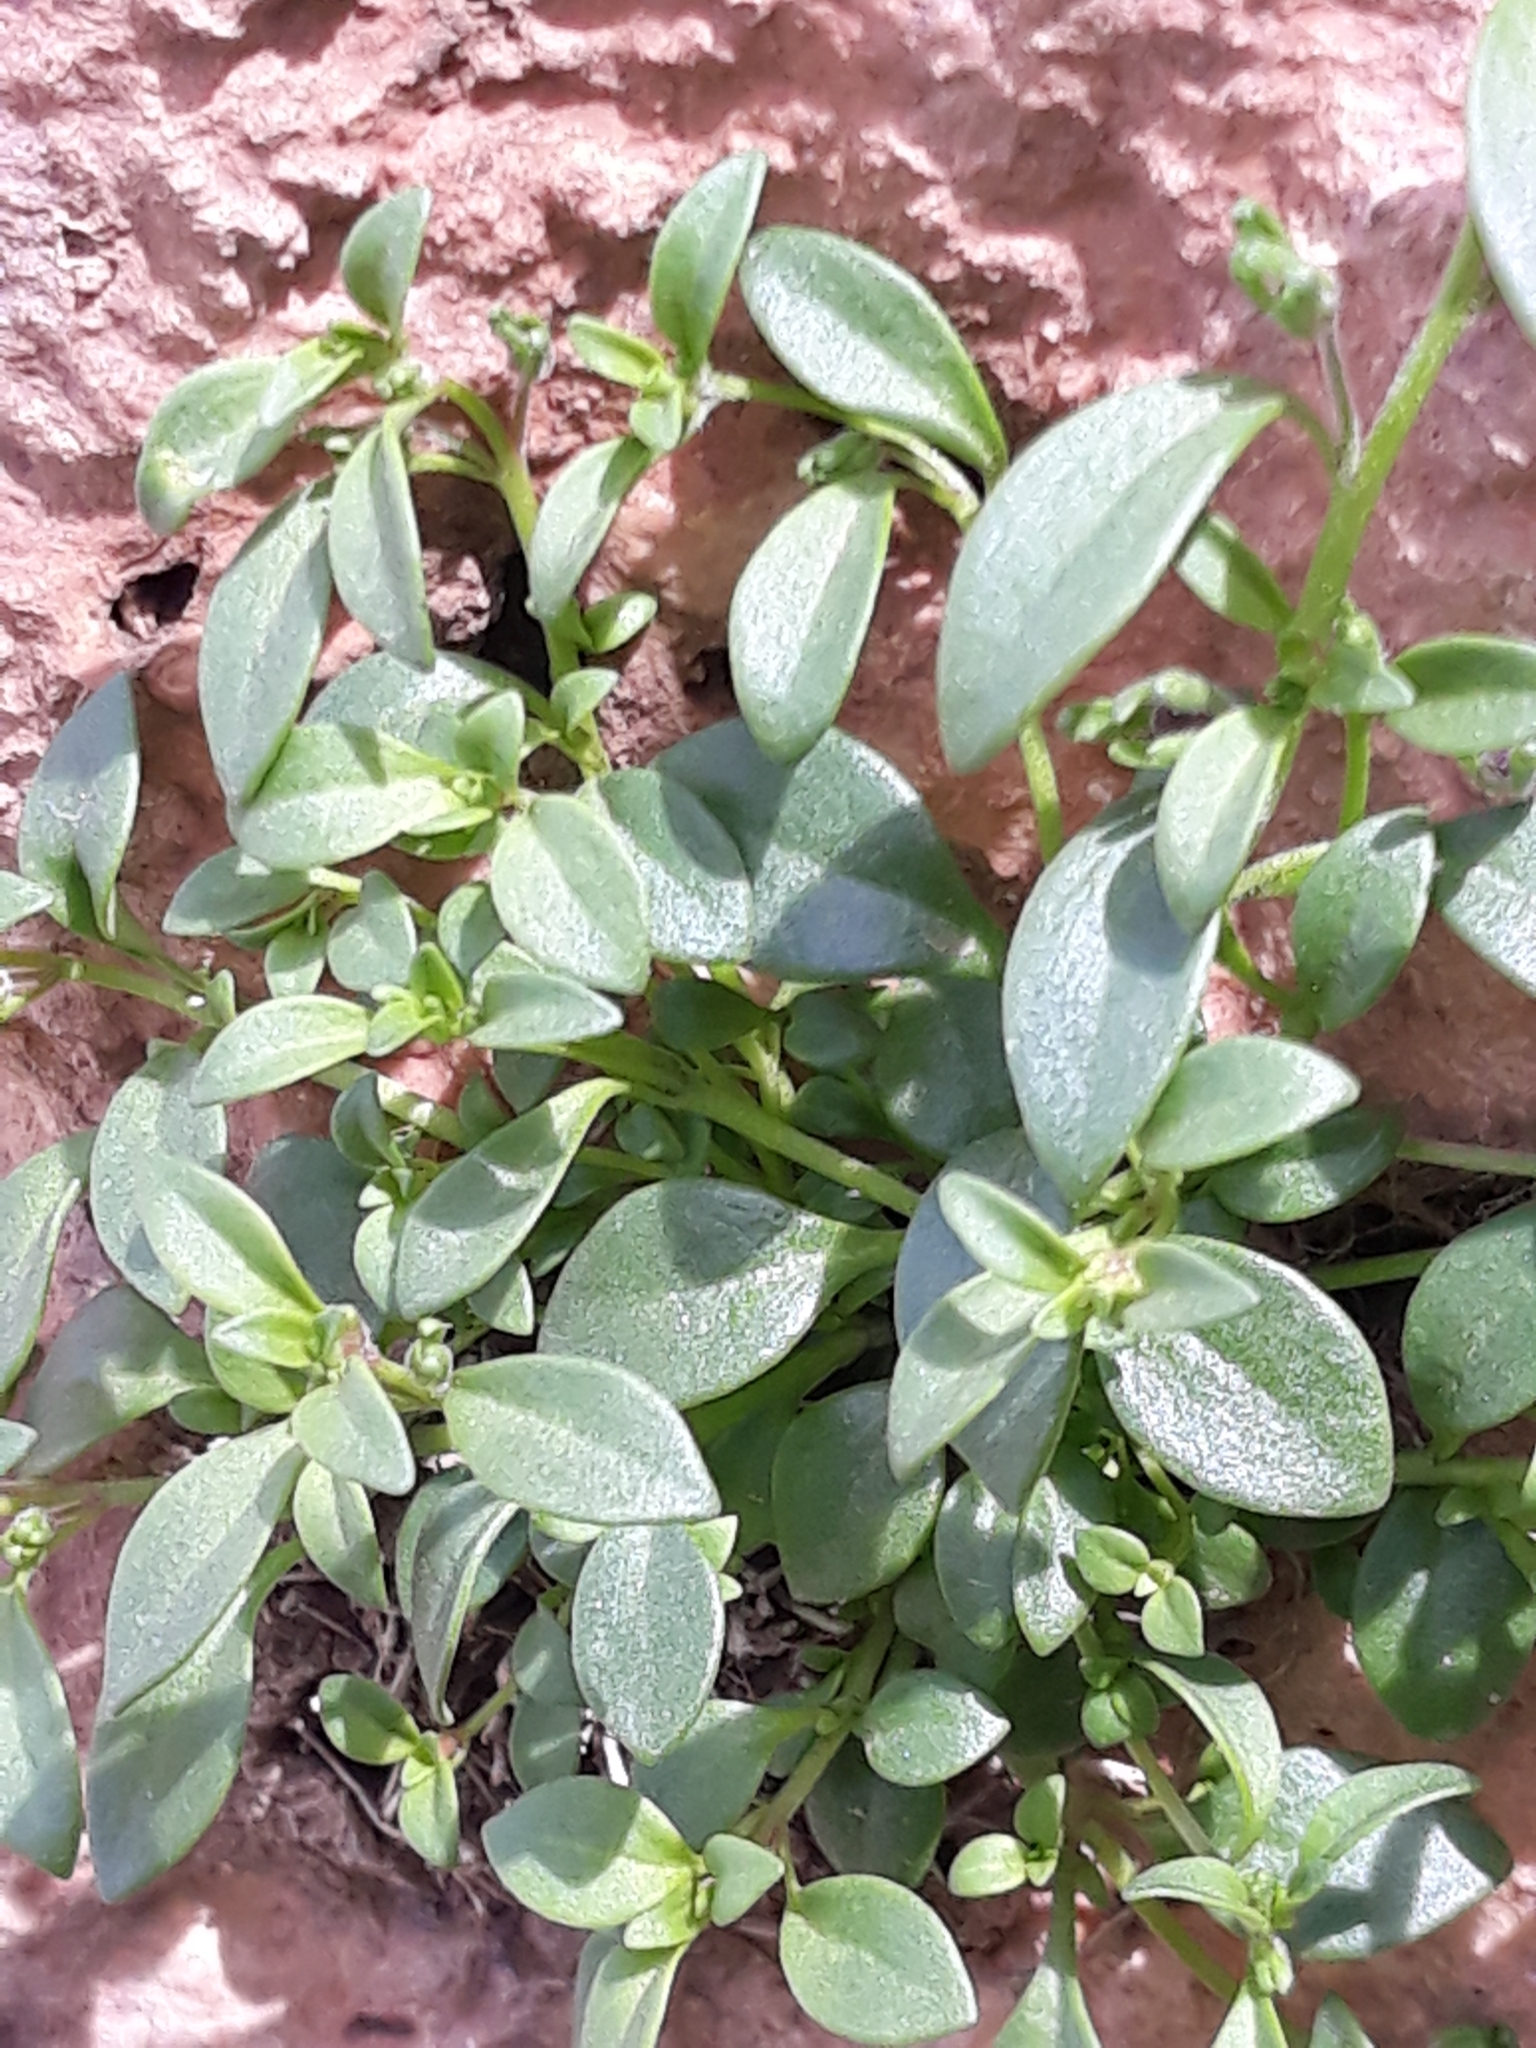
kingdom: Plantae
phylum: Tracheophyta
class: Magnoliopsida
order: Lamiales
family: Plantaginaceae
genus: Chaenorhinum
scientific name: Chaenorhinum flexuosum
